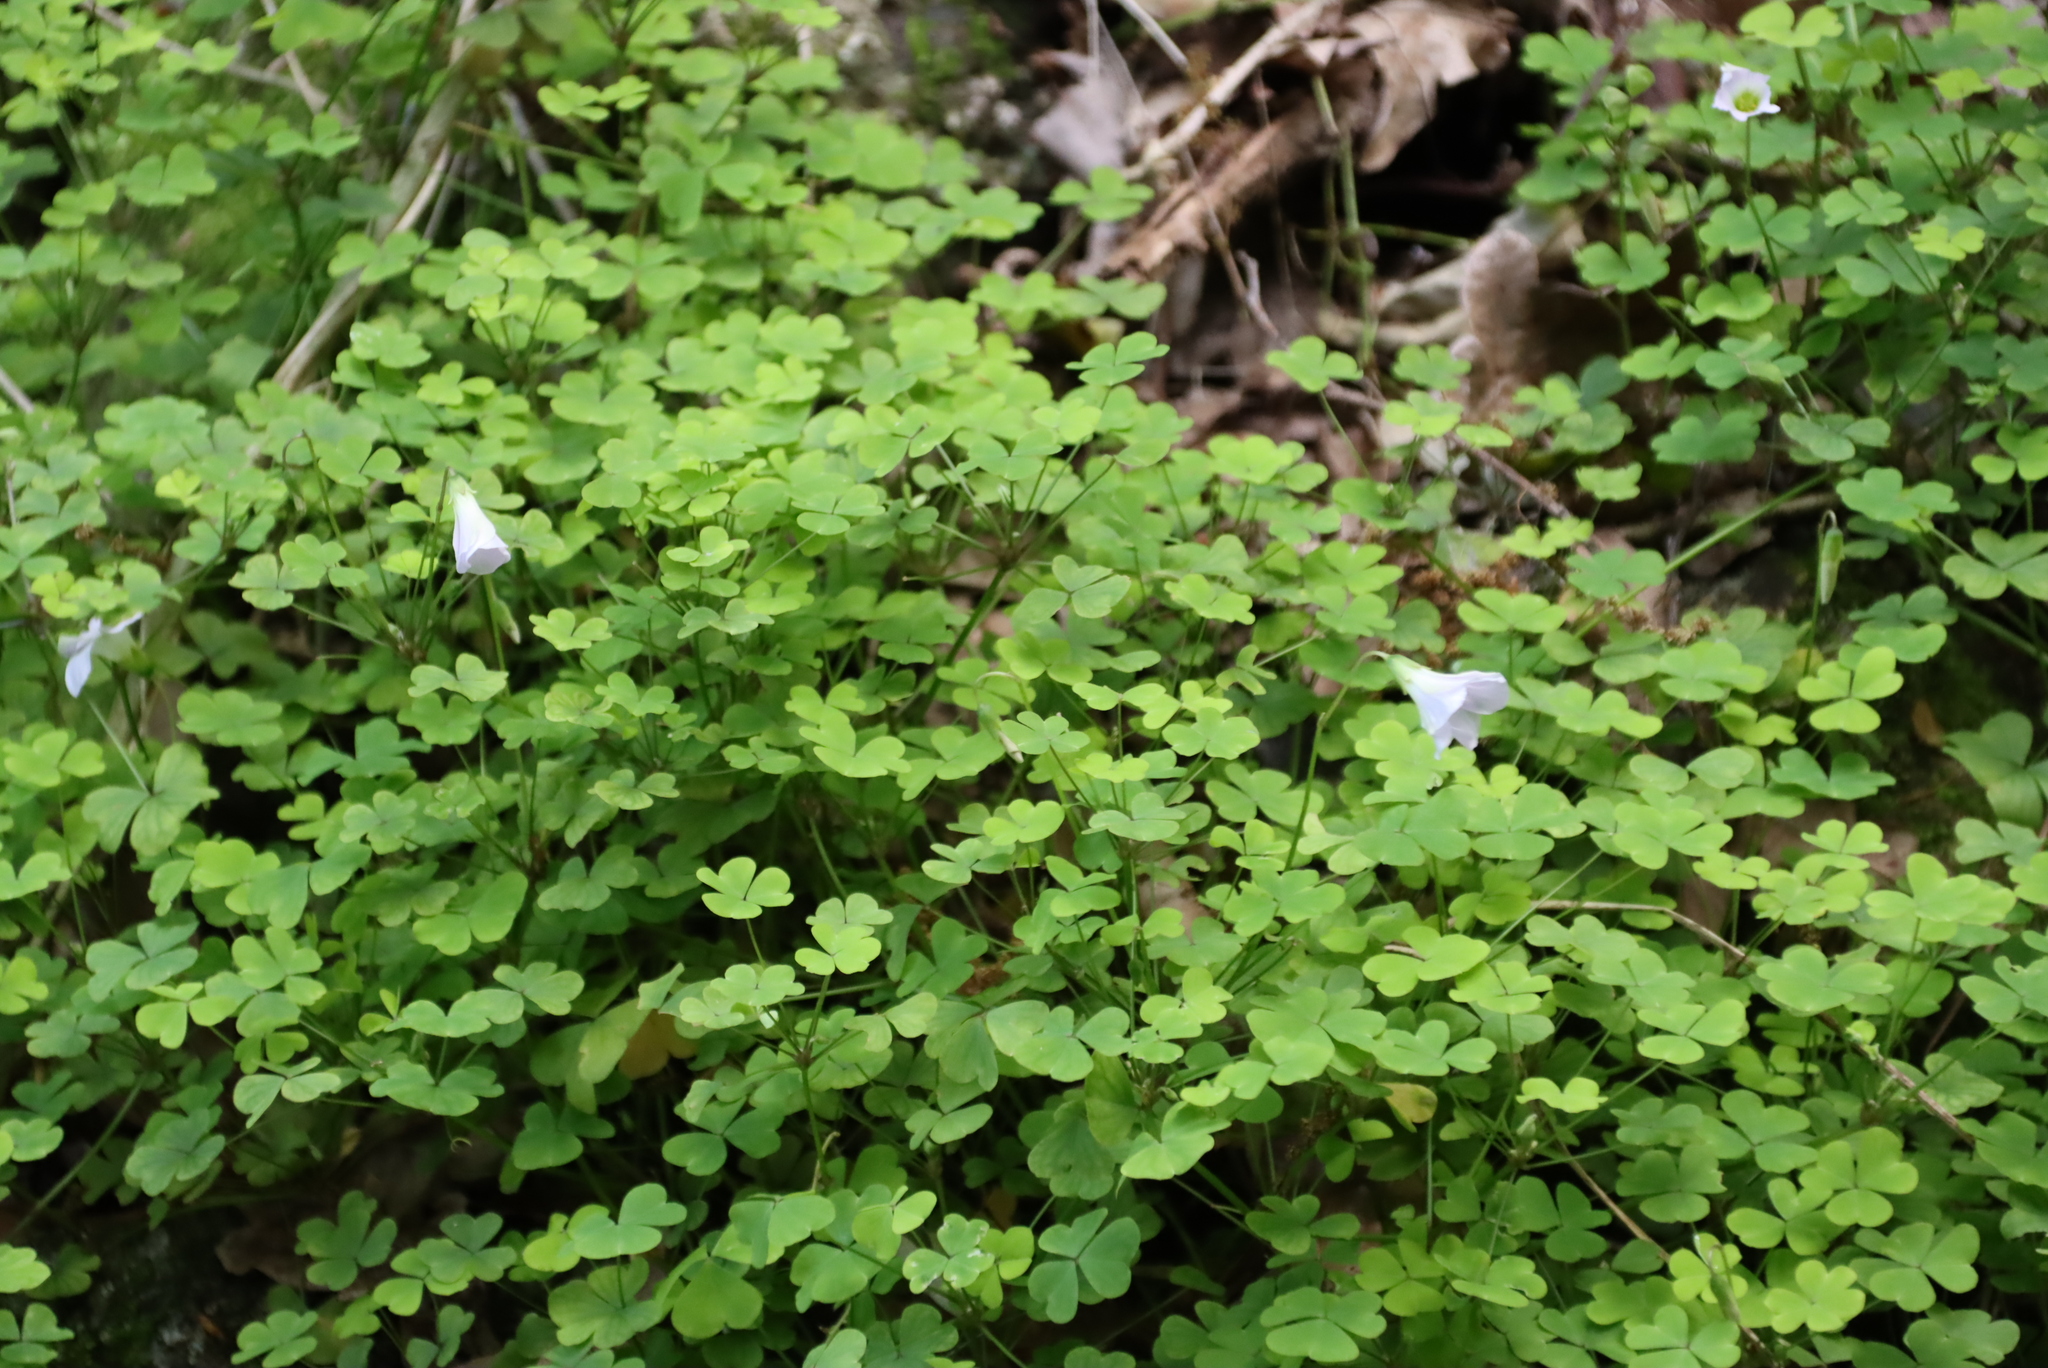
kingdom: Plantae
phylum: Tracheophyta
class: Magnoliopsida
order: Oxalidales
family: Oxalidaceae
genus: Oxalis
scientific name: Oxalis incarnata
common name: Pale pink-sorrel
